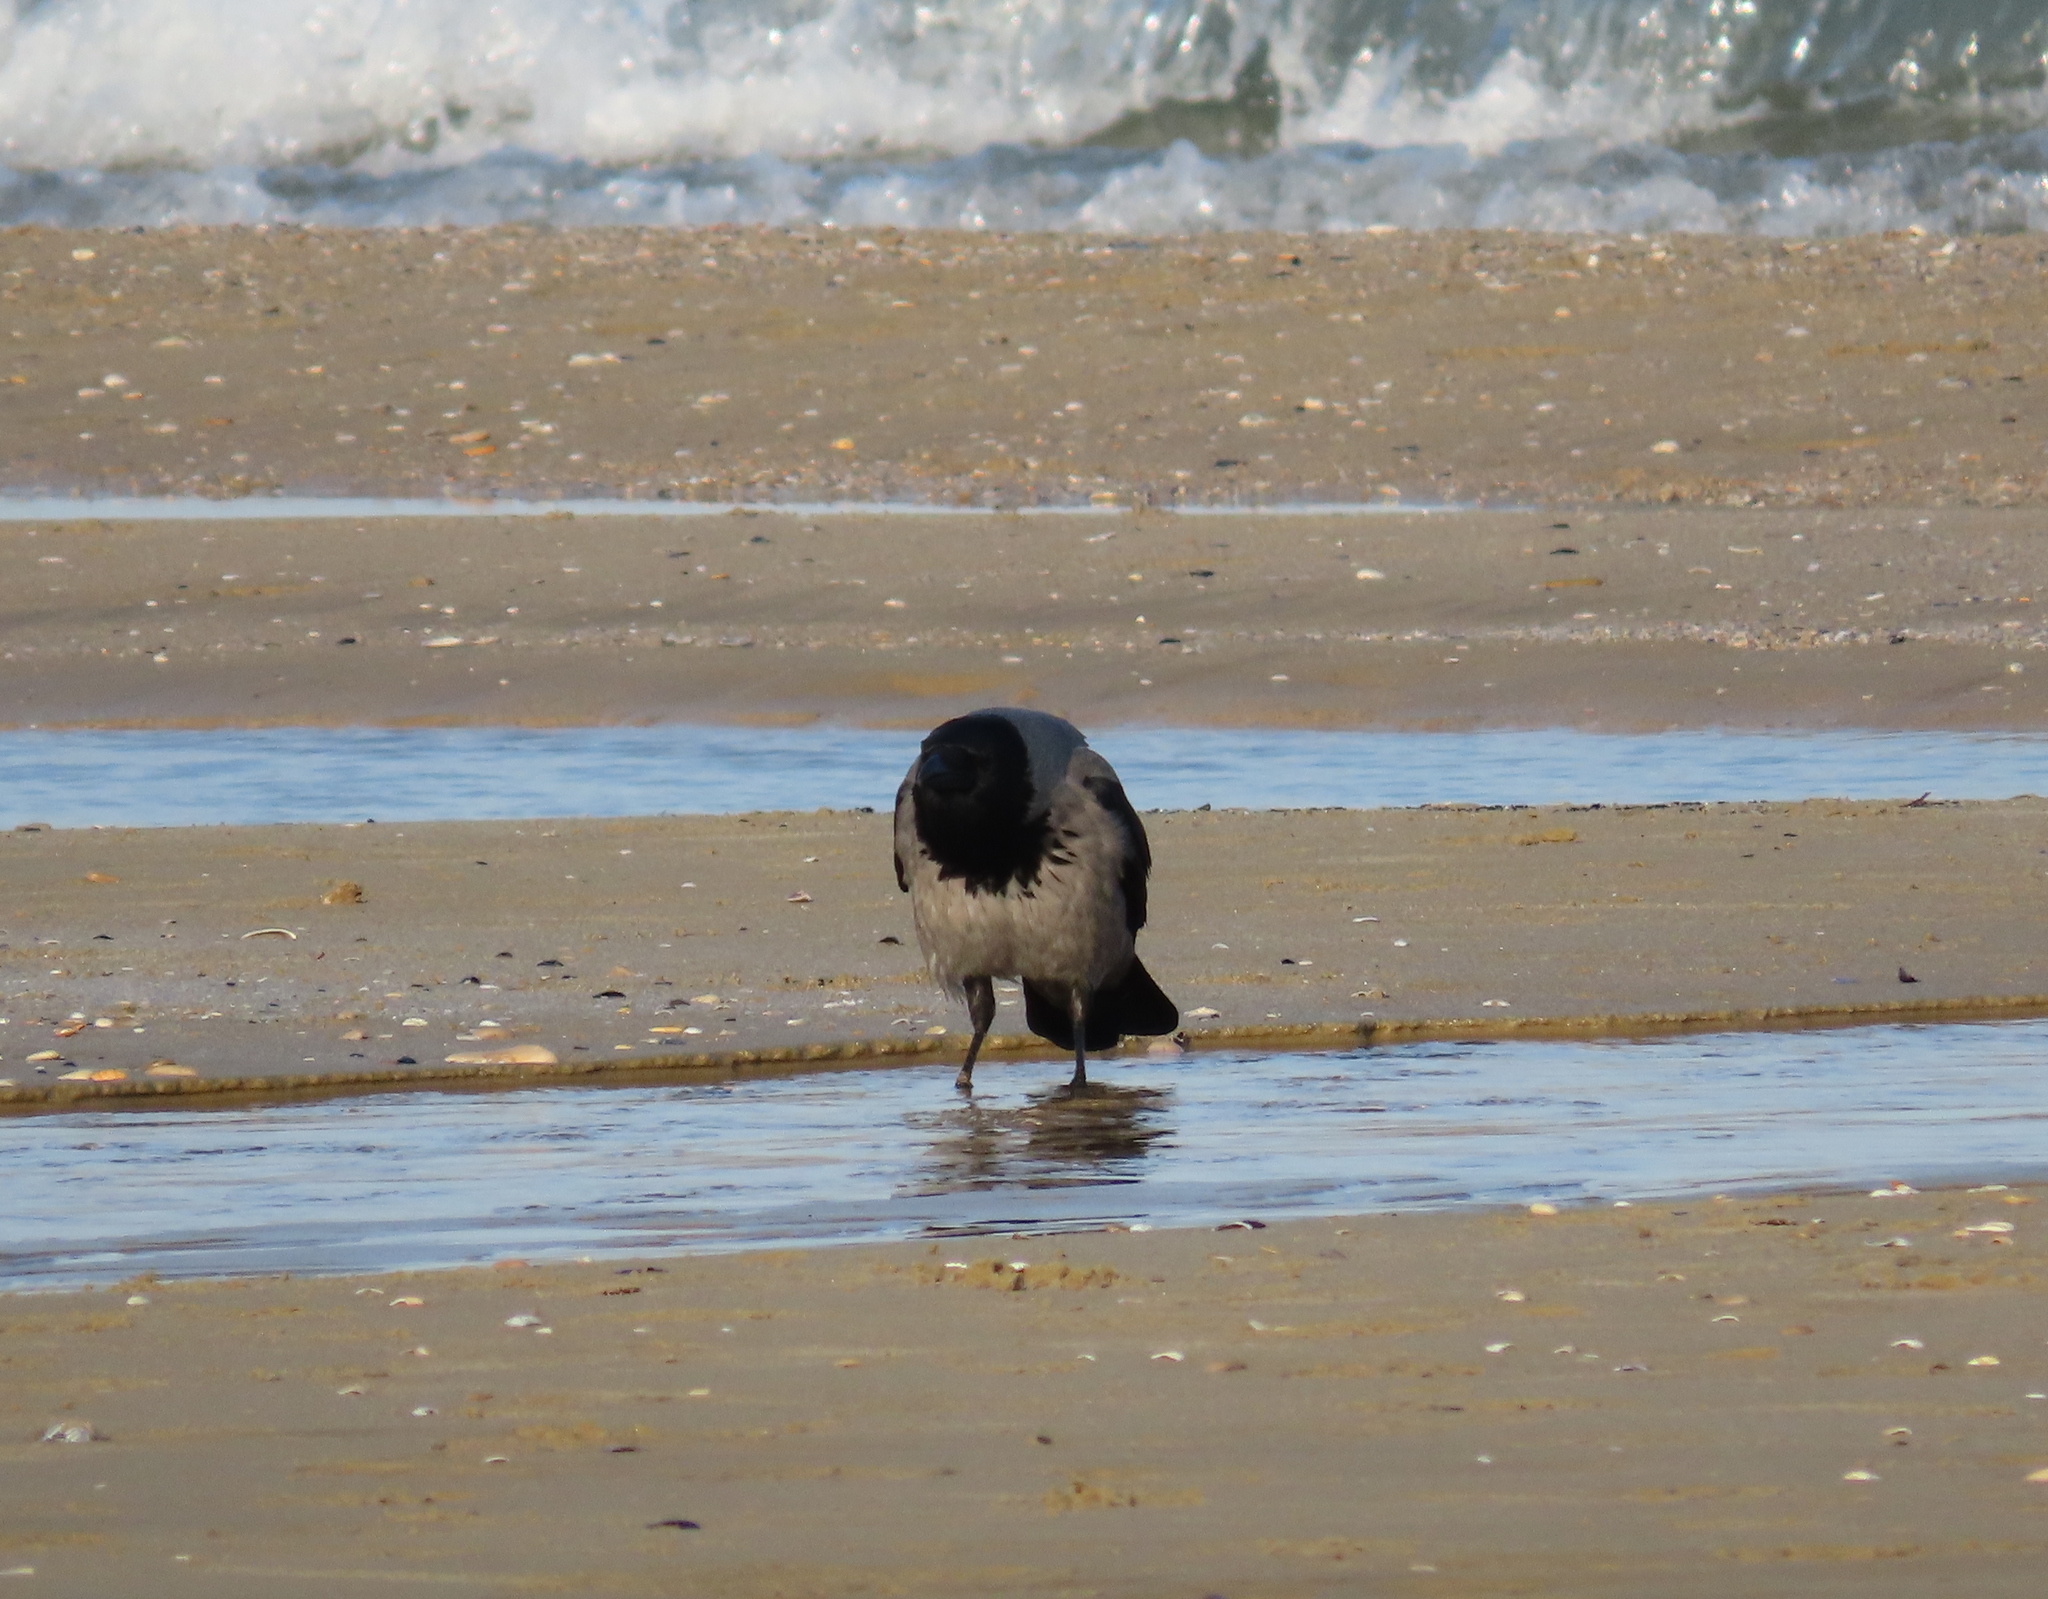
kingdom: Animalia
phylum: Chordata
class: Aves
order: Passeriformes
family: Corvidae
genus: Corvus
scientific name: Corvus cornix
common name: Hooded crow
